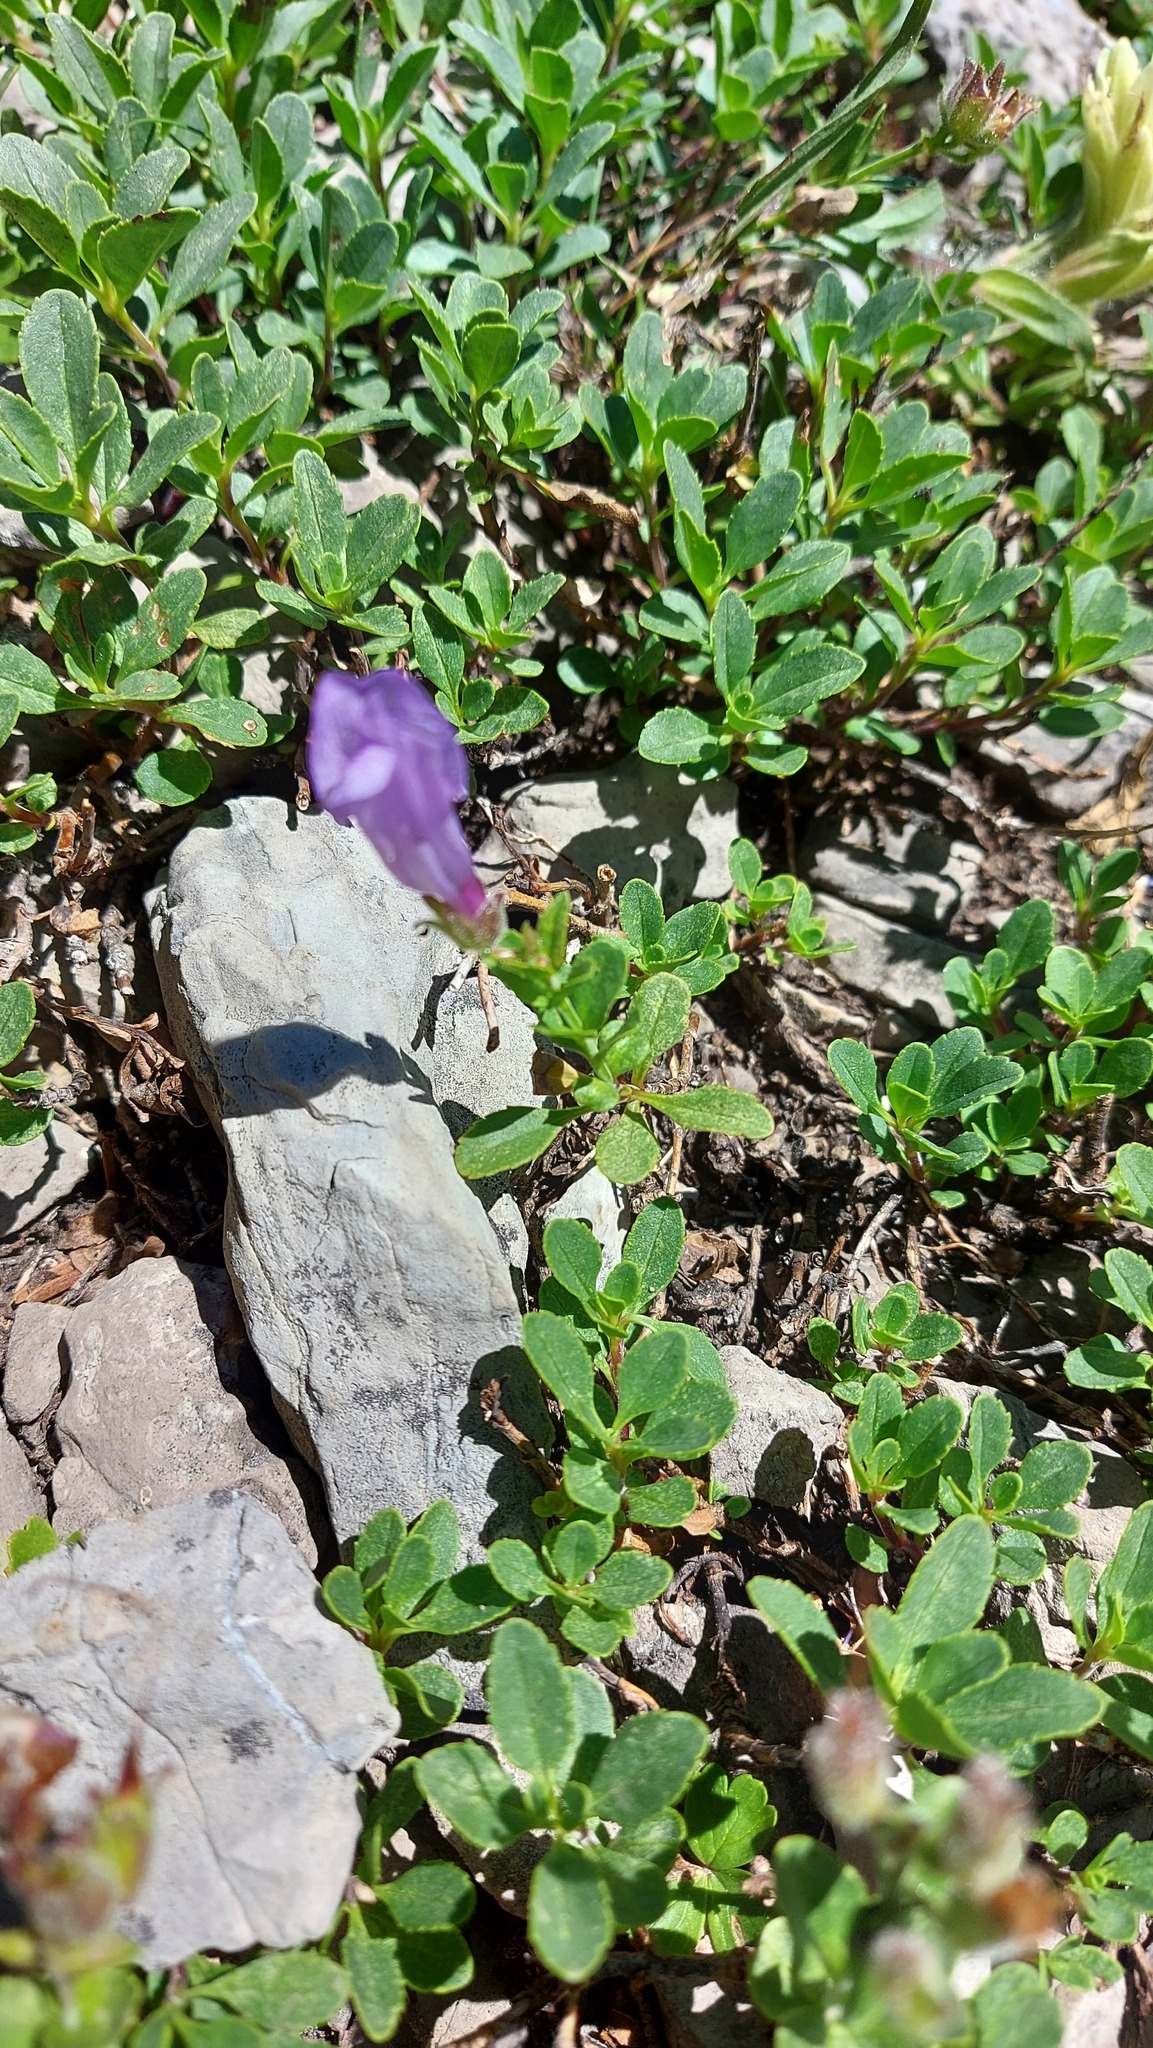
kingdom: Plantae
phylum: Tracheophyta
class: Magnoliopsida
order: Lamiales
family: Plantaginaceae
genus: Penstemon
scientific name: Penstemon ellipticus
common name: Alpine beardtongue
